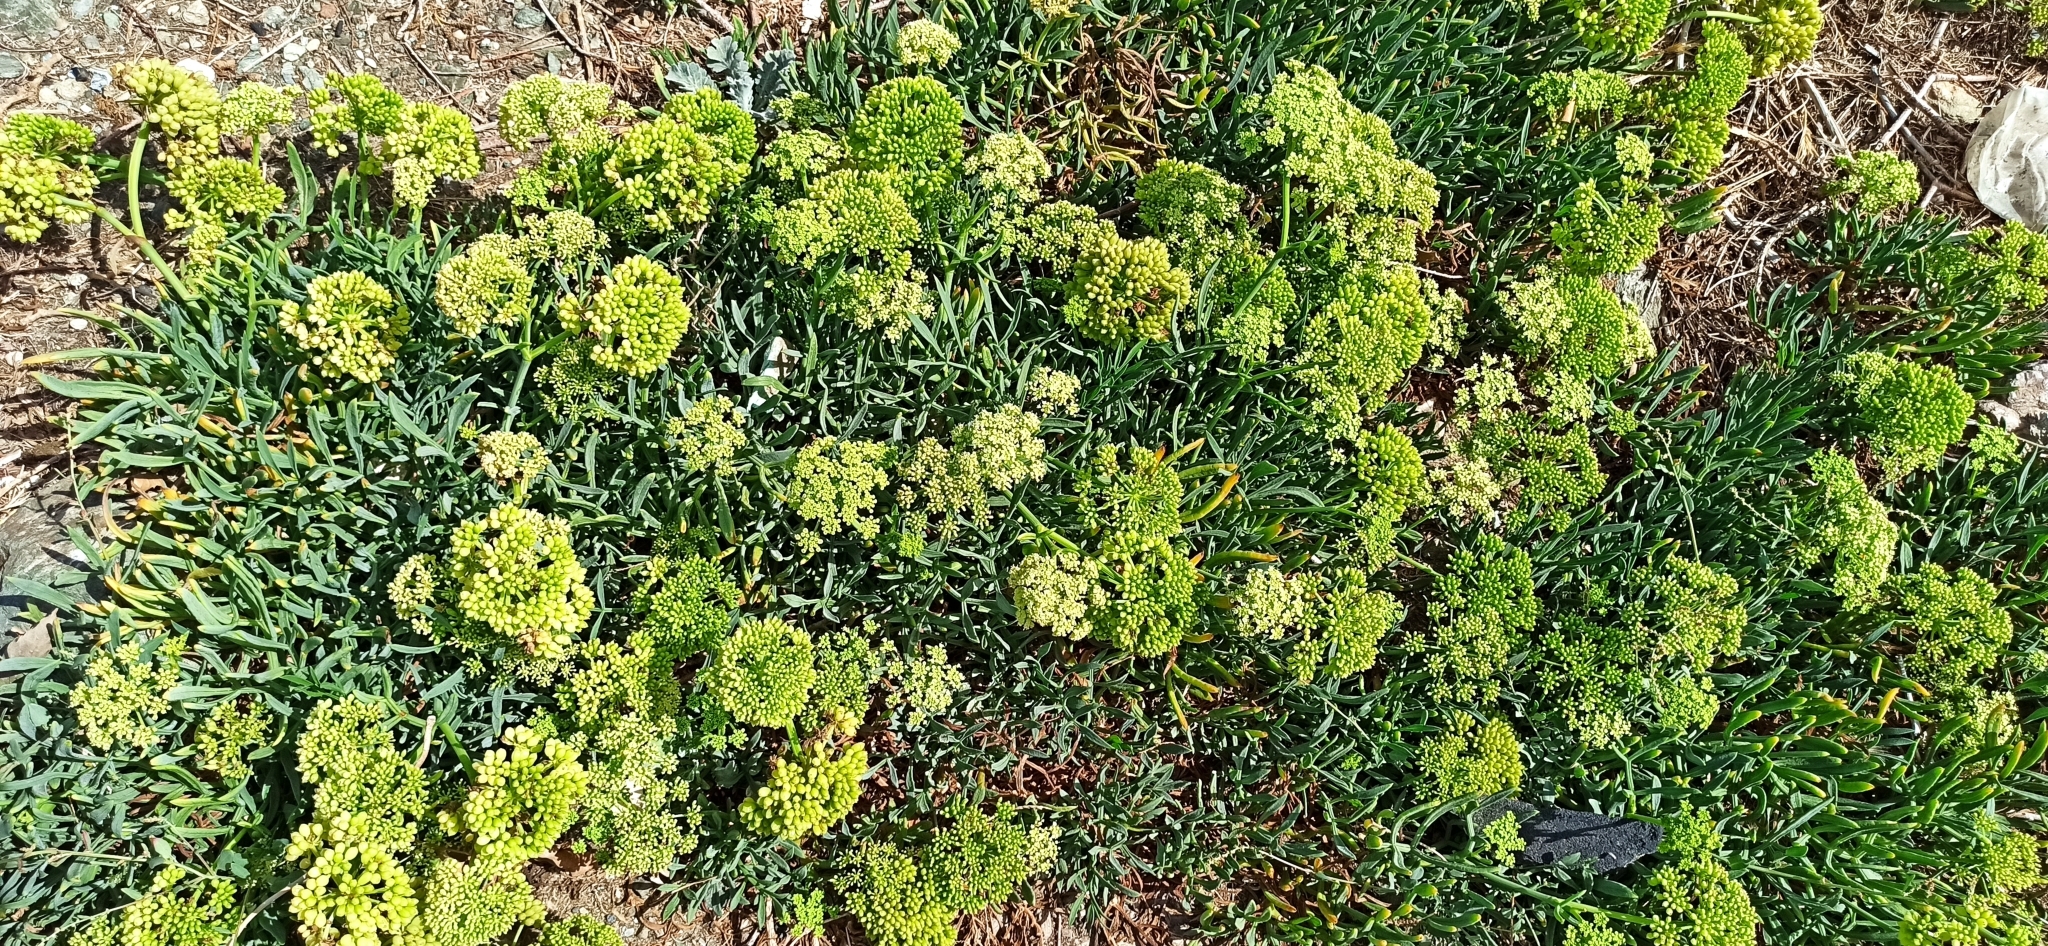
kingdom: Plantae
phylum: Tracheophyta
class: Magnoliopsida
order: Apiales
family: Apiaceae
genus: Crithmum
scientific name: Crithmum maritimum
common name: Rock samphire
